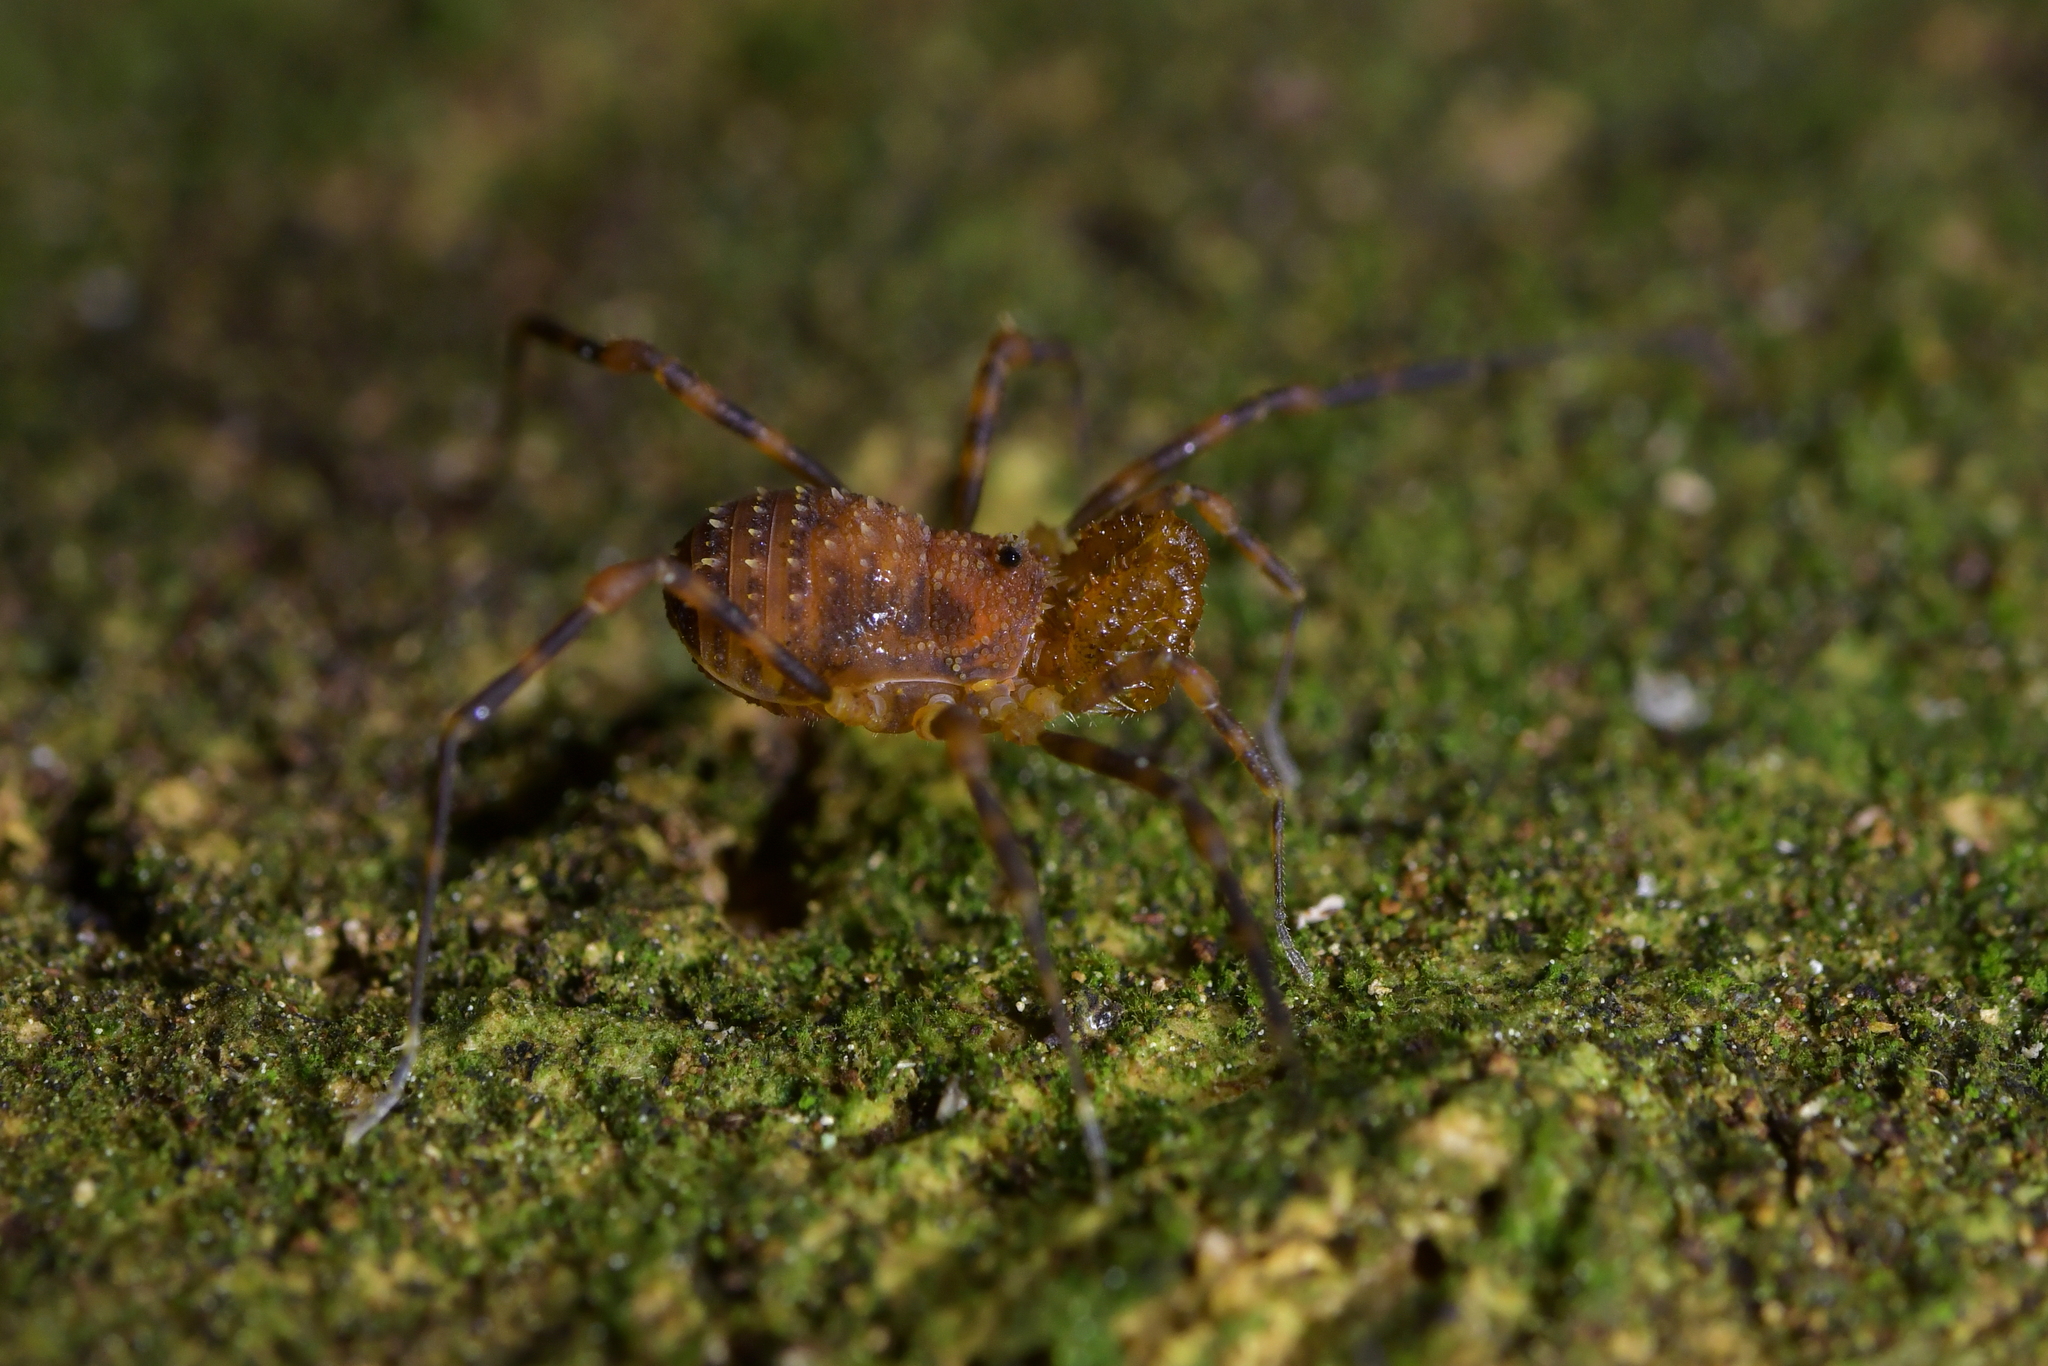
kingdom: Animalia
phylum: Arthropoda
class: Arachnida
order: Opiliones
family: Triaenonychidae
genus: Prasma
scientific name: Prasma tuberculata
